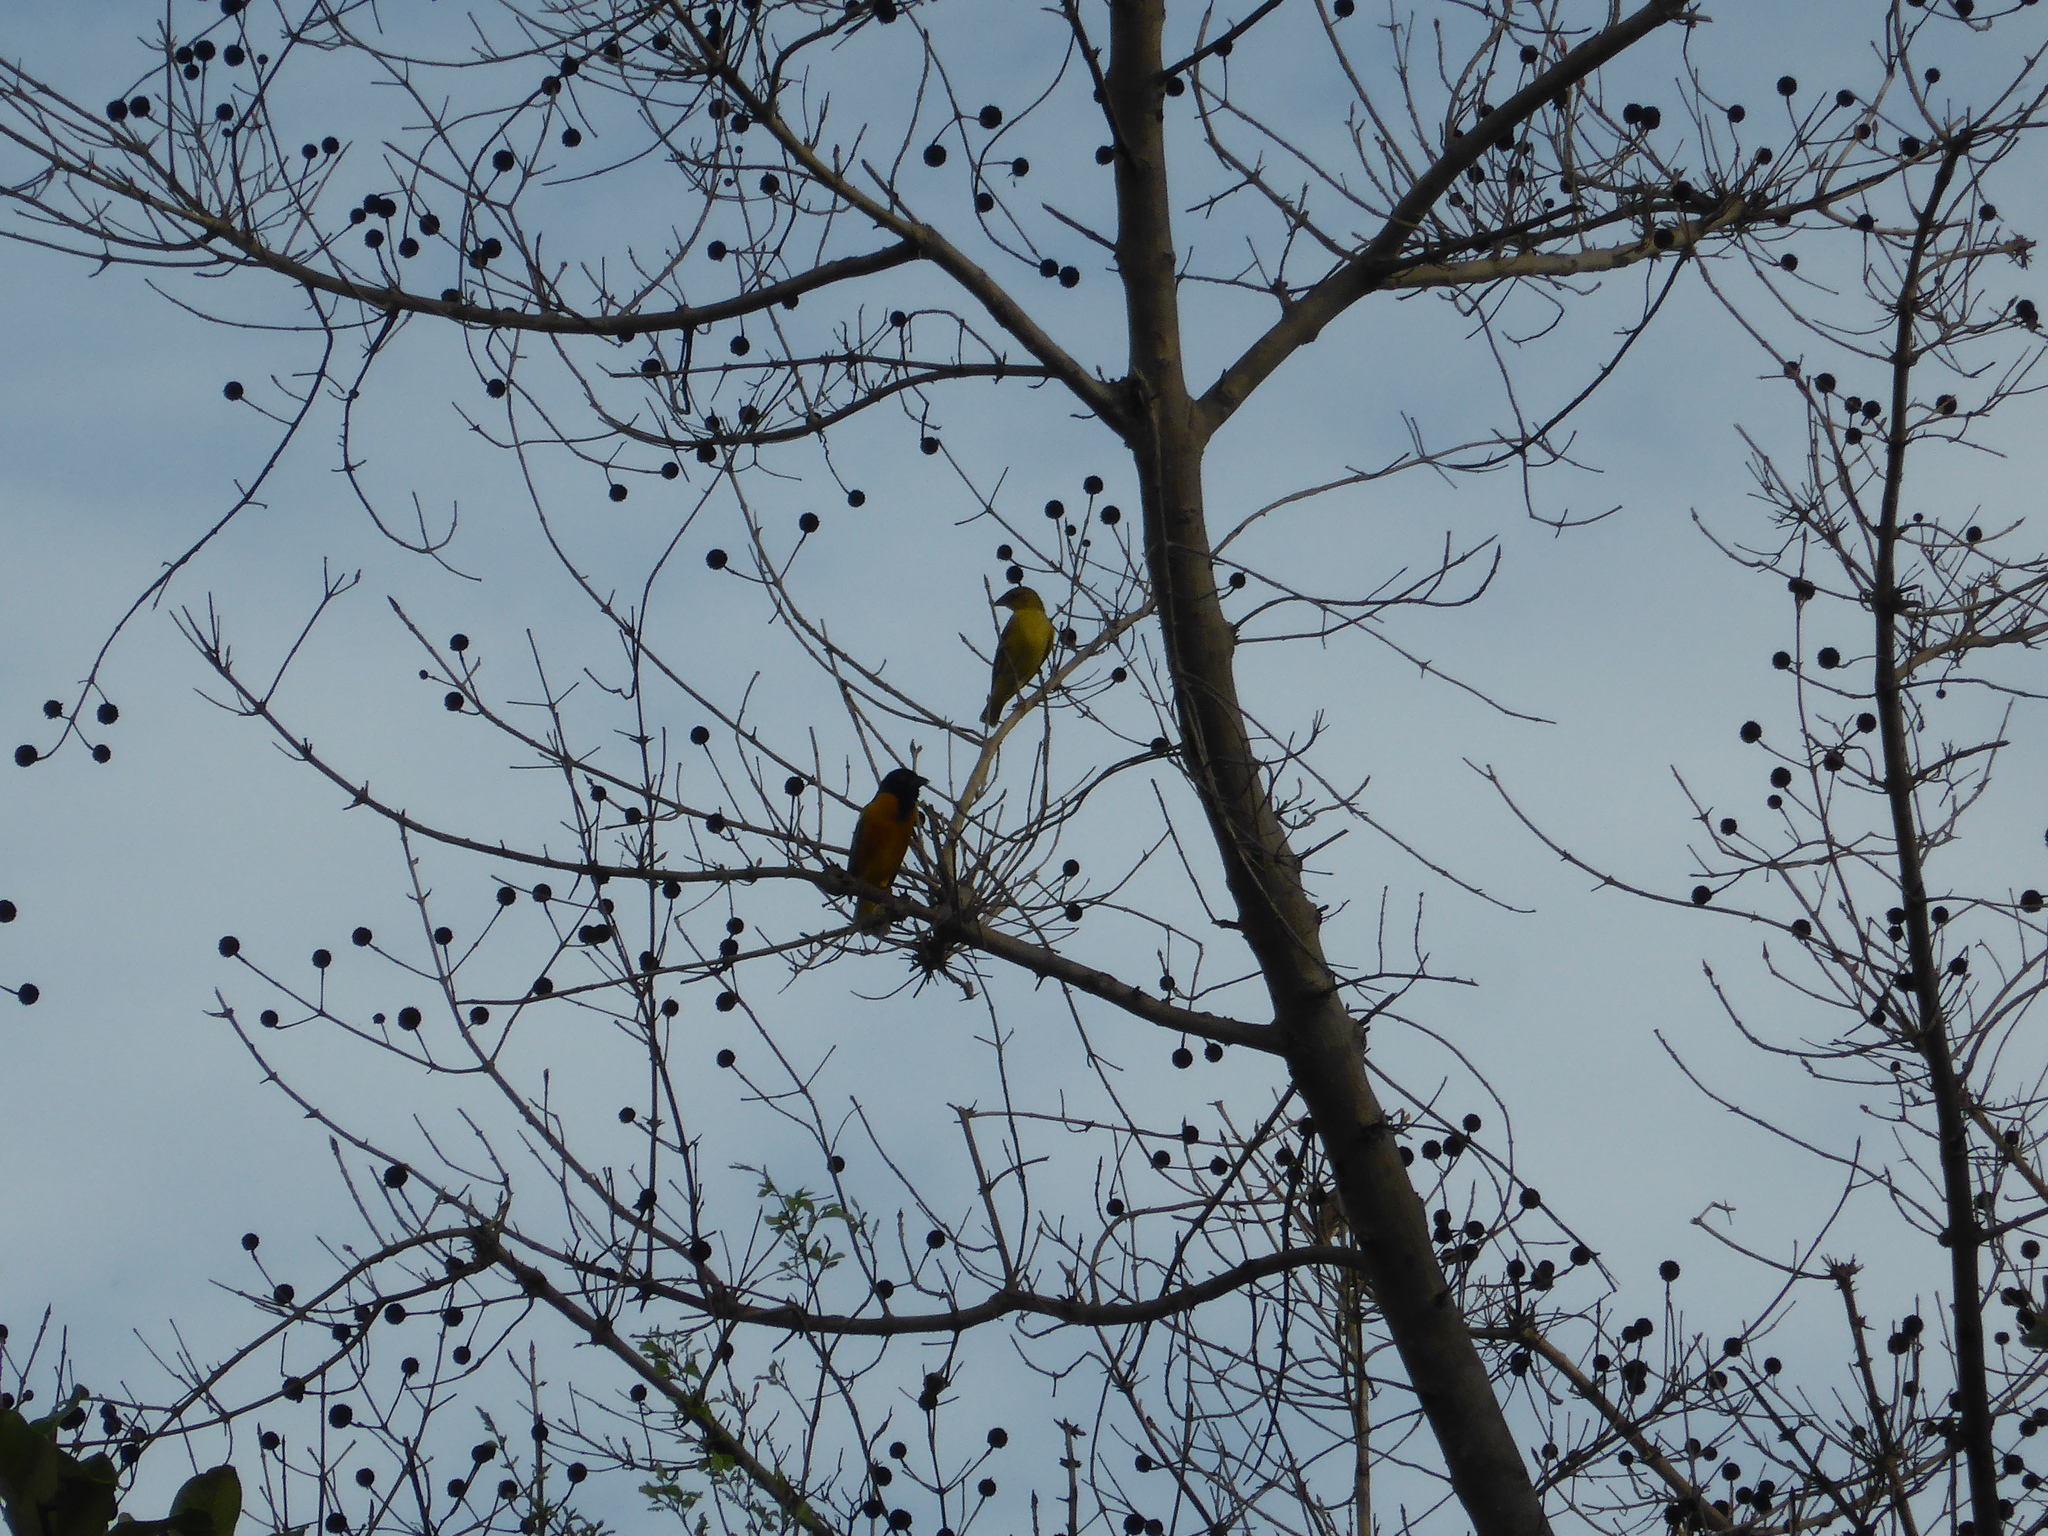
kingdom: Animalia
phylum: Chordata
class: Aves
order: Passeriformes
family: Ploceidae
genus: Ploceus
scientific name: Ploceus melanocephalus
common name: Black-headed weaver
